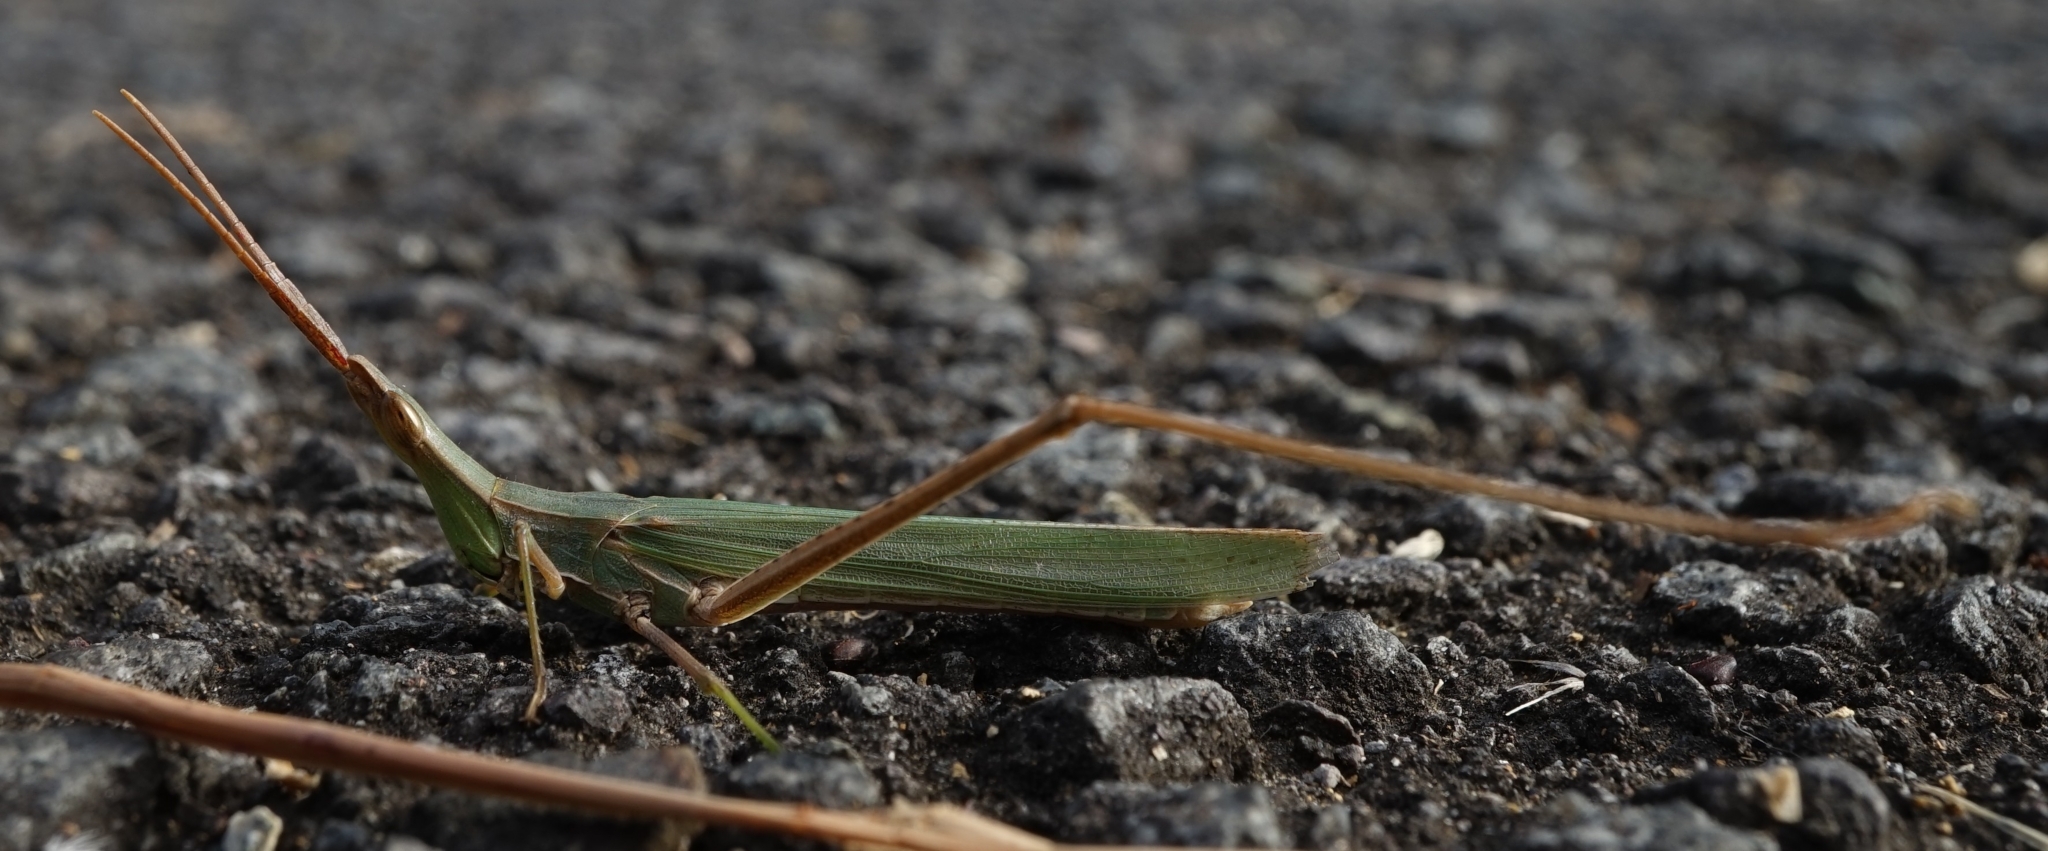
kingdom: Animalia
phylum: Arthropoda
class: Insecta
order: Orthoptera
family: Acrididae
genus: Acrida
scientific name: Acrida cinerea
